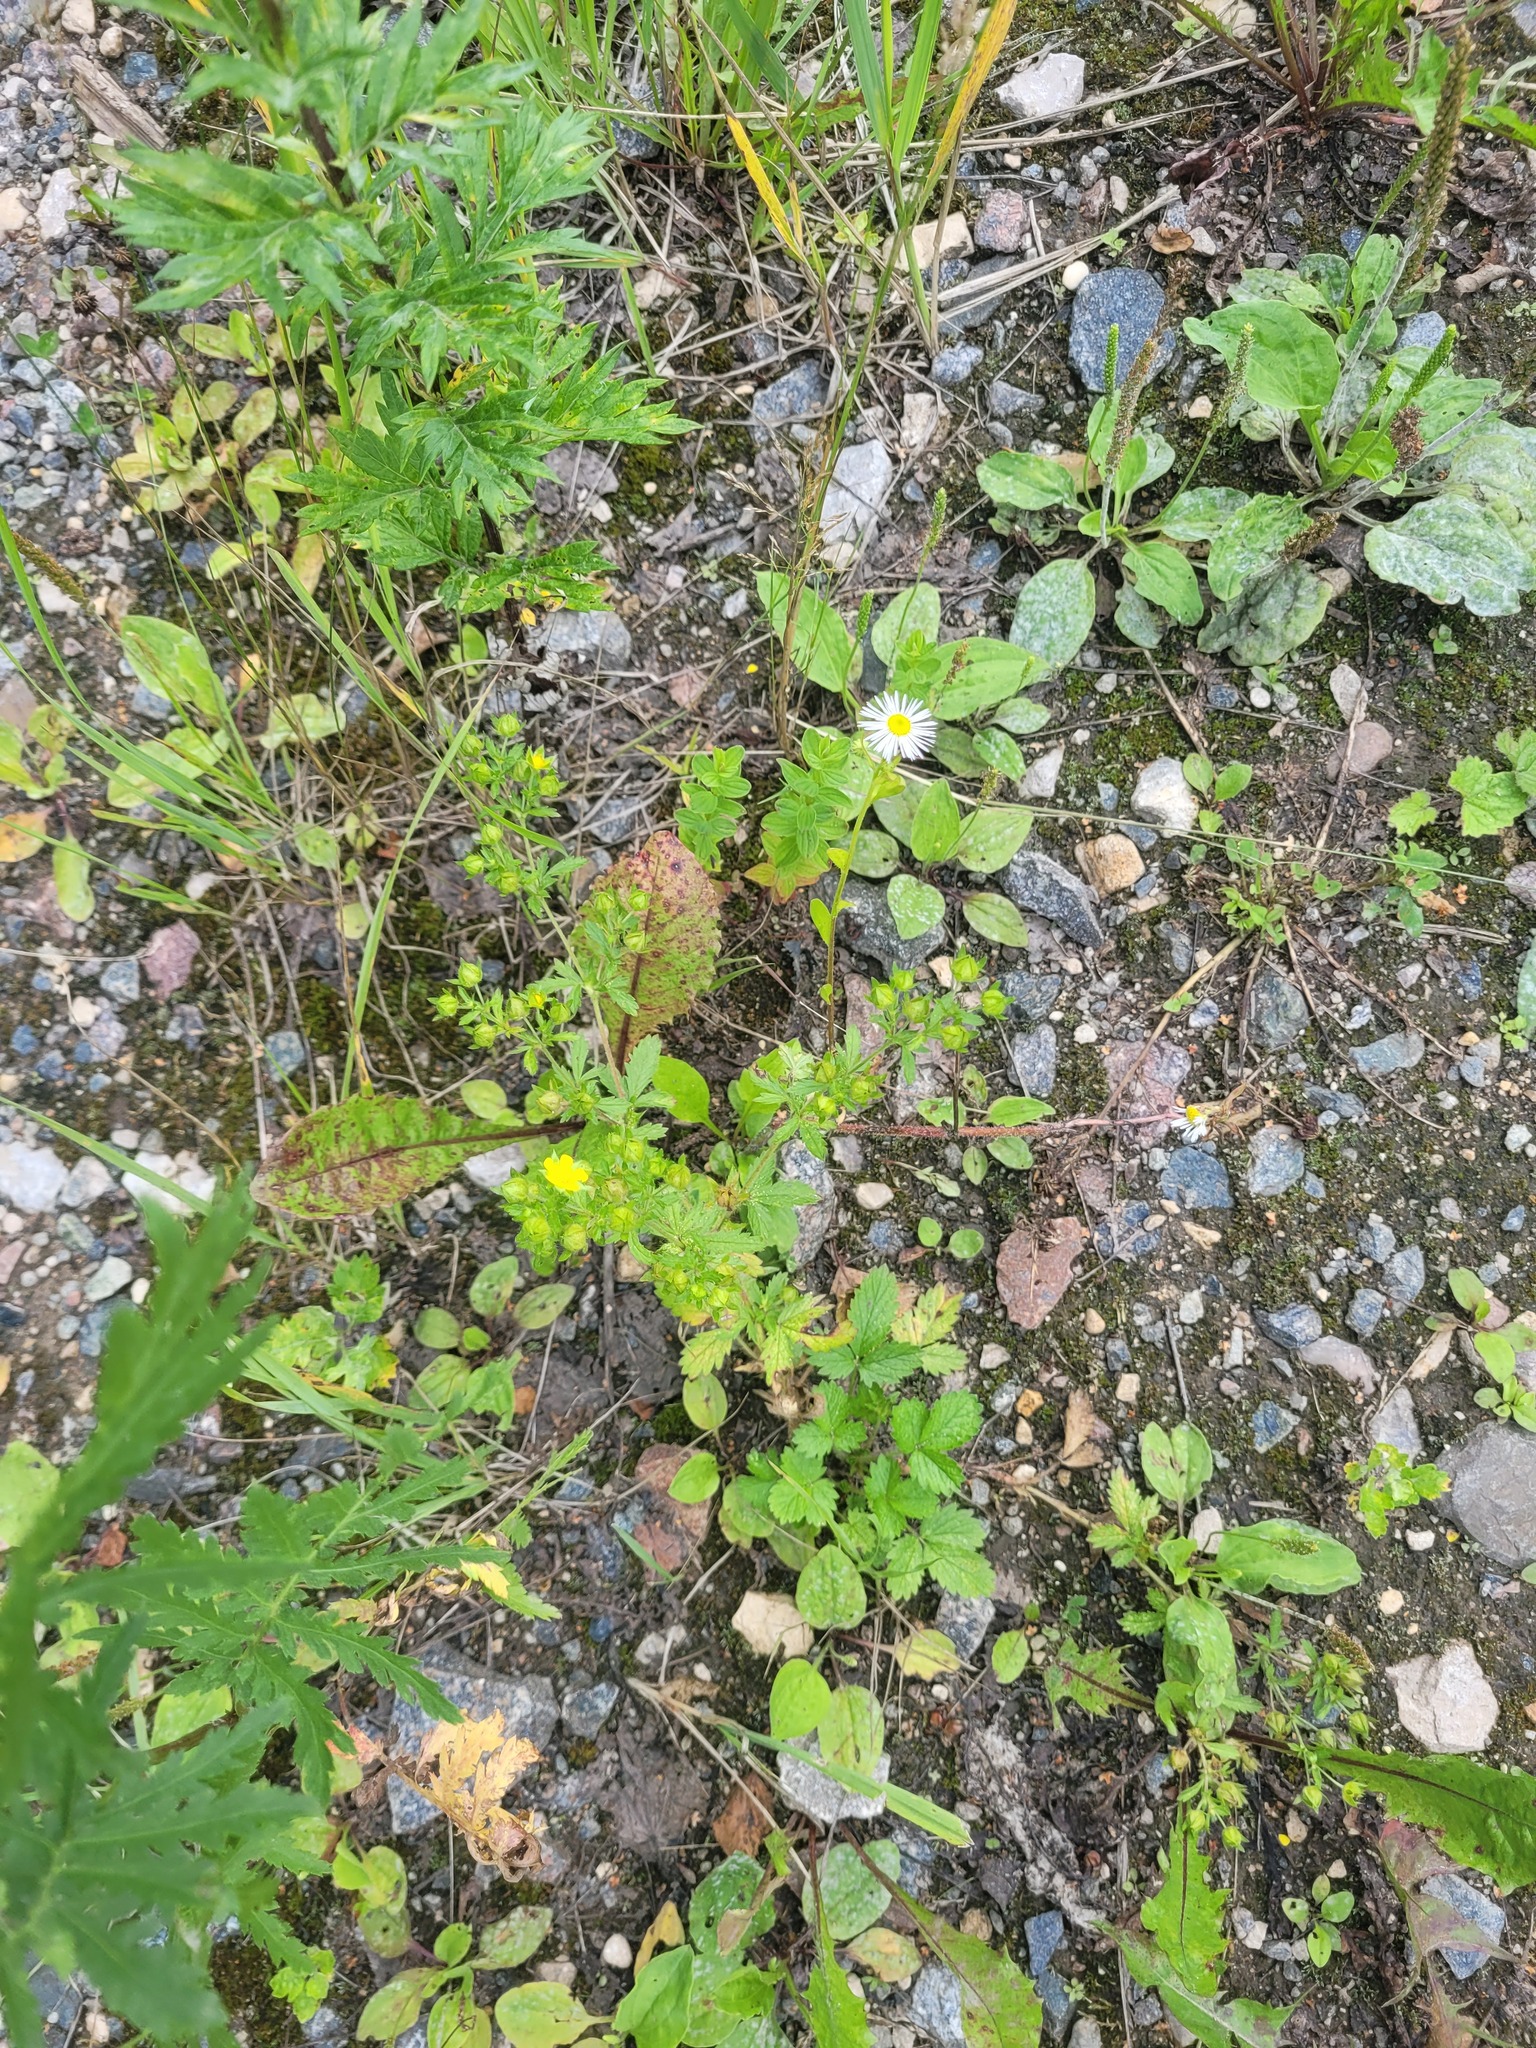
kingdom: Plantae
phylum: Tracheophyta
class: Magnoliopsida
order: Rosales
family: Rosaceae
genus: Potentilla
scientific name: Potentilla norvegica
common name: Ternate-leaved cinquefoil
